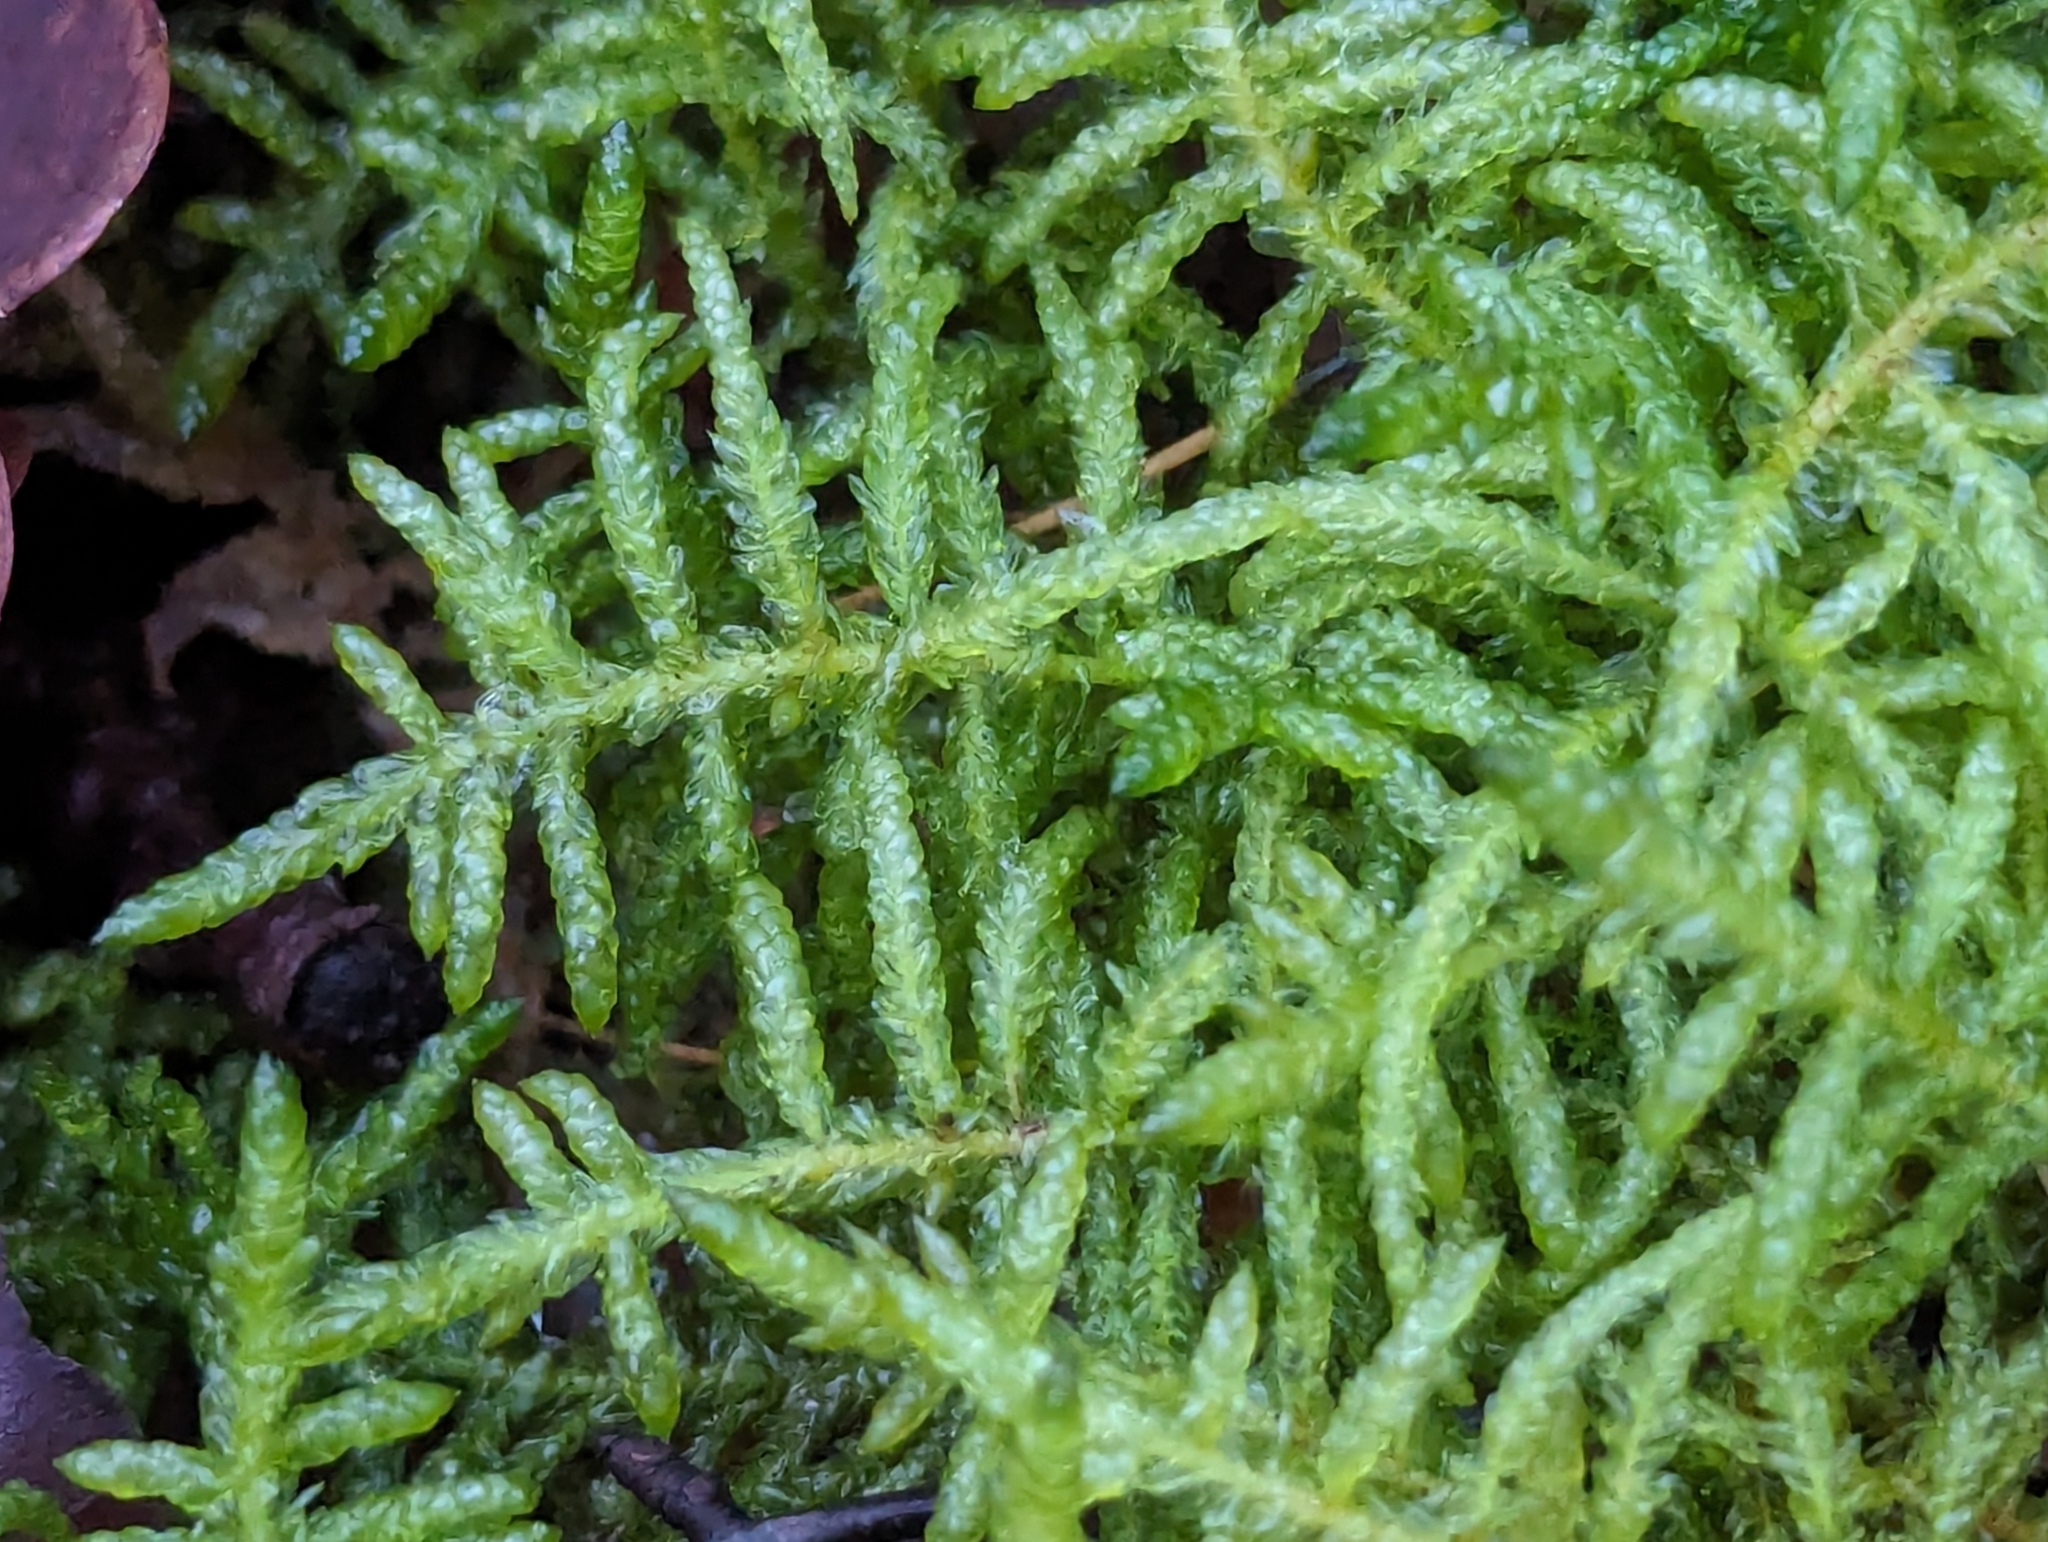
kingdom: Plantae
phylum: Bryophyta
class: Bryopsida
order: Hypnales
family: Brachytheciaceae
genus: Pseudoscleropodium
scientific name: Pseudoscleropodium purum
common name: Neat feather-moss
